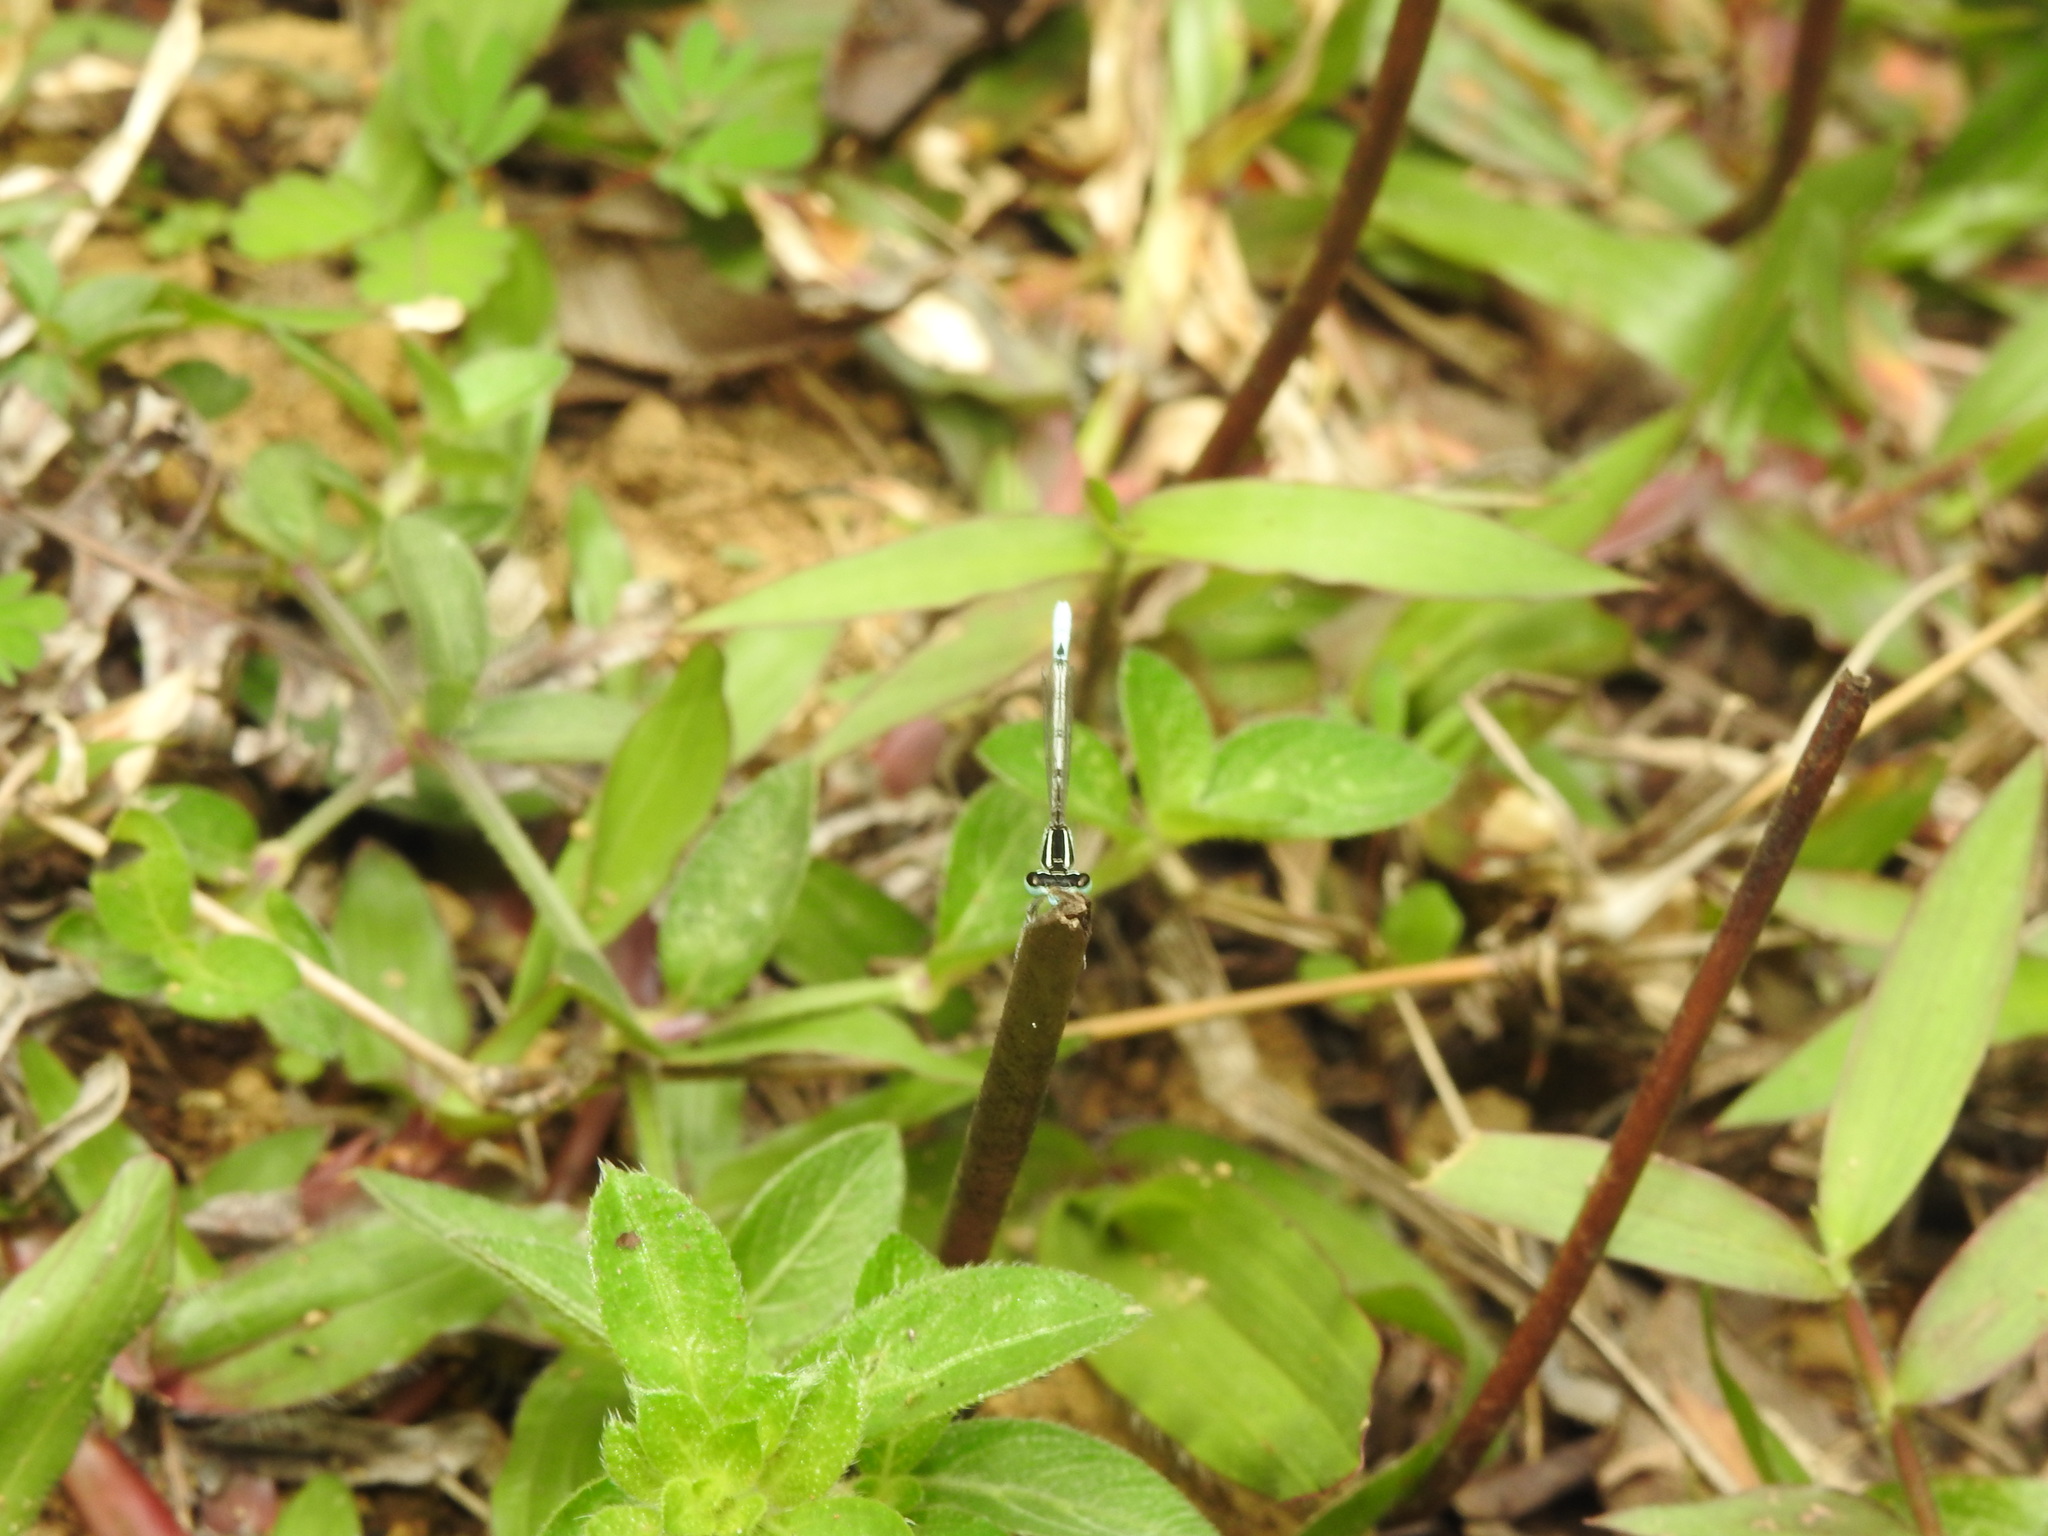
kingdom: Animalia
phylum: Arthropoda
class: Insecta
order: Odonata
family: Coenagrionidae
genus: Agriocnemis
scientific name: Agriocnemis pieris
